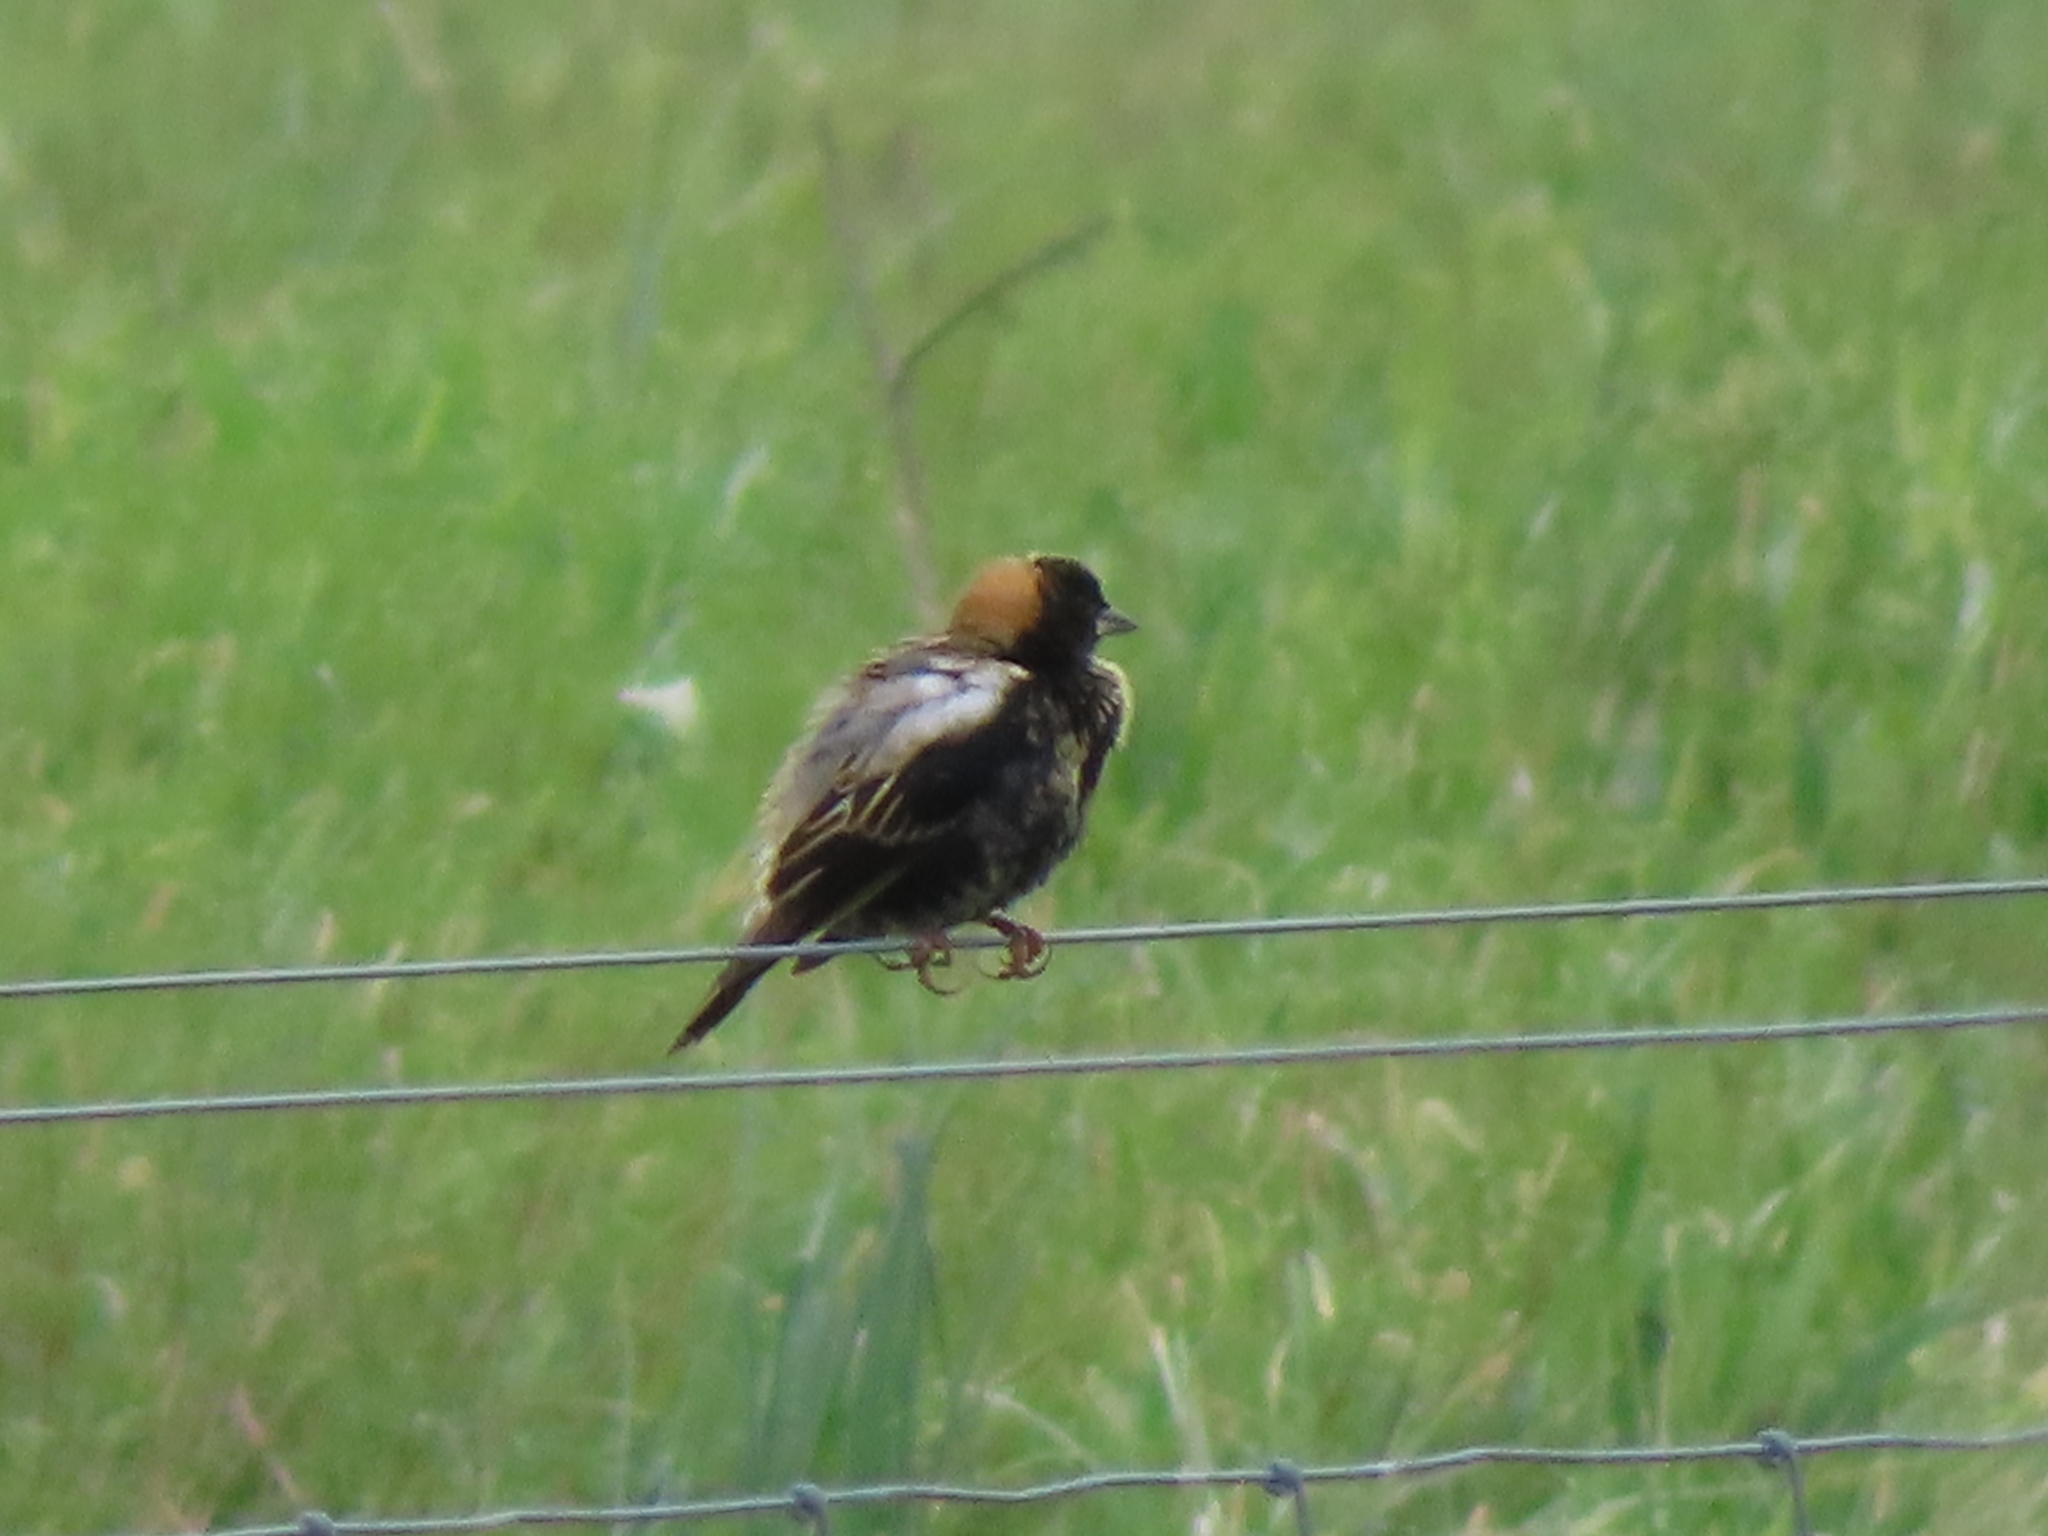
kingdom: Animalia
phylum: Chordata
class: Aves
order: Passeriformes
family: Icteridae
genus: Dolichonyx
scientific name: Dolichonyx oryzivorus
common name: Bobolink
